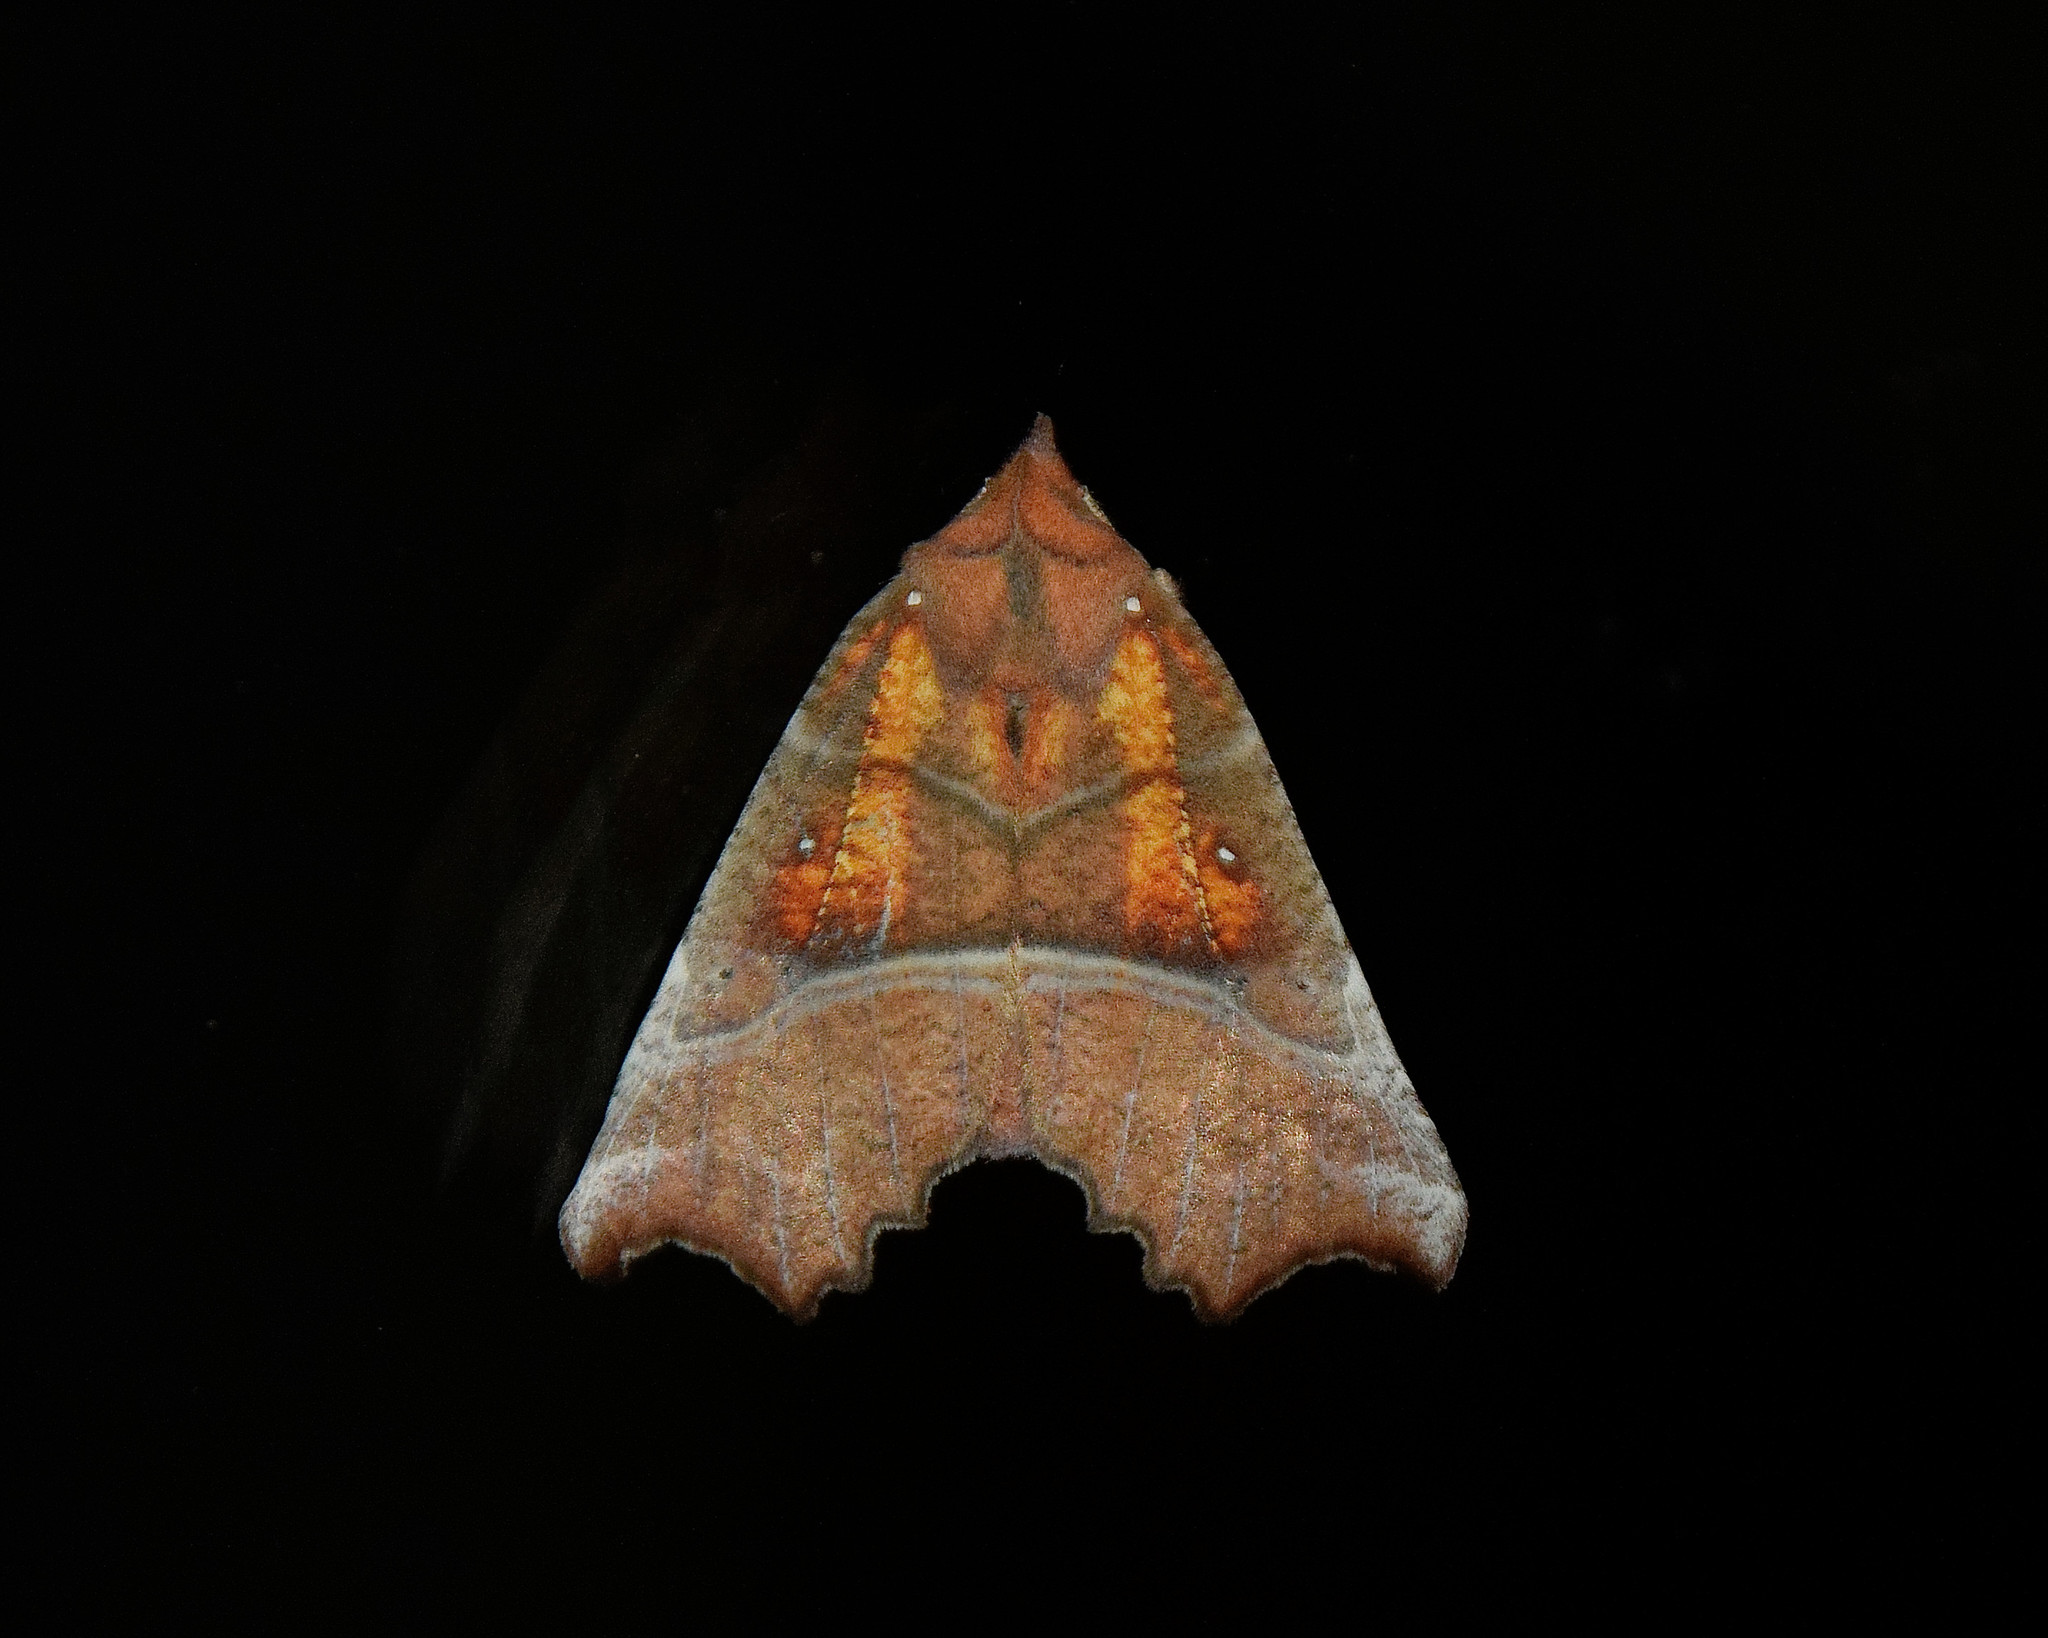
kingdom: Animalia
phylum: Arthropoda
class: Insecta
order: Lepidoptera
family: Erebidae
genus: Scoliopteryx
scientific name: Scoliopteryx libatrix
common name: Herald
